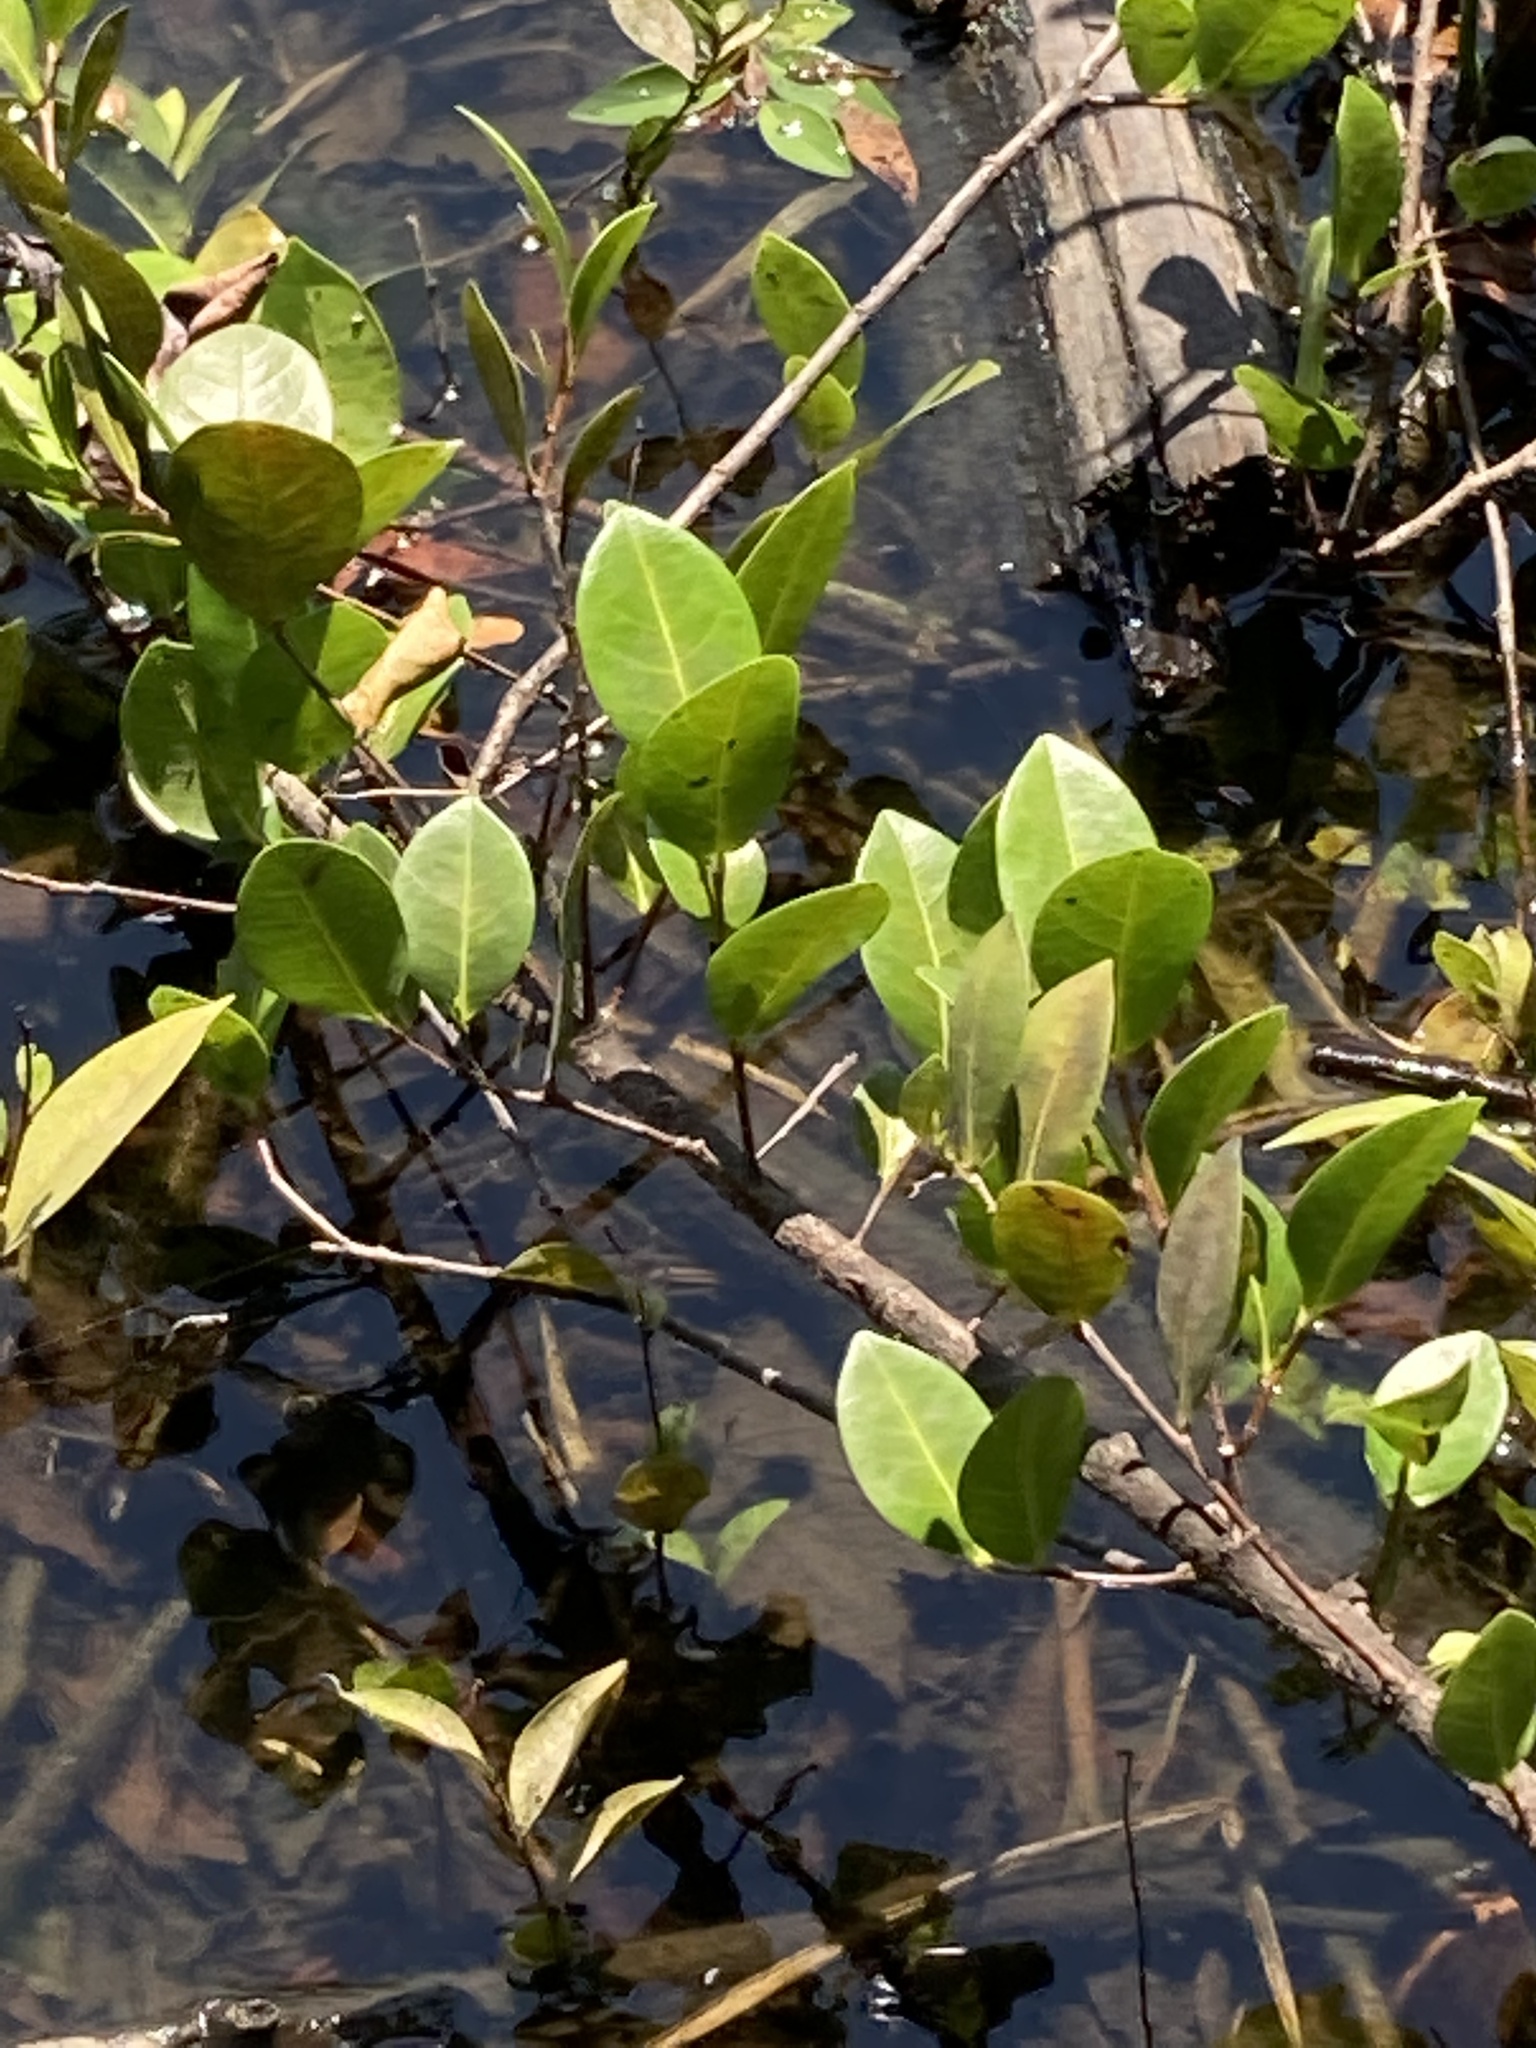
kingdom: Plantae
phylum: Tracheophyta
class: Magnoliopsida
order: Malpighiales
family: Chrysobalanaceae
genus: Chrysobalanus
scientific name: Chrysobalanus icaco
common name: Coco plum
